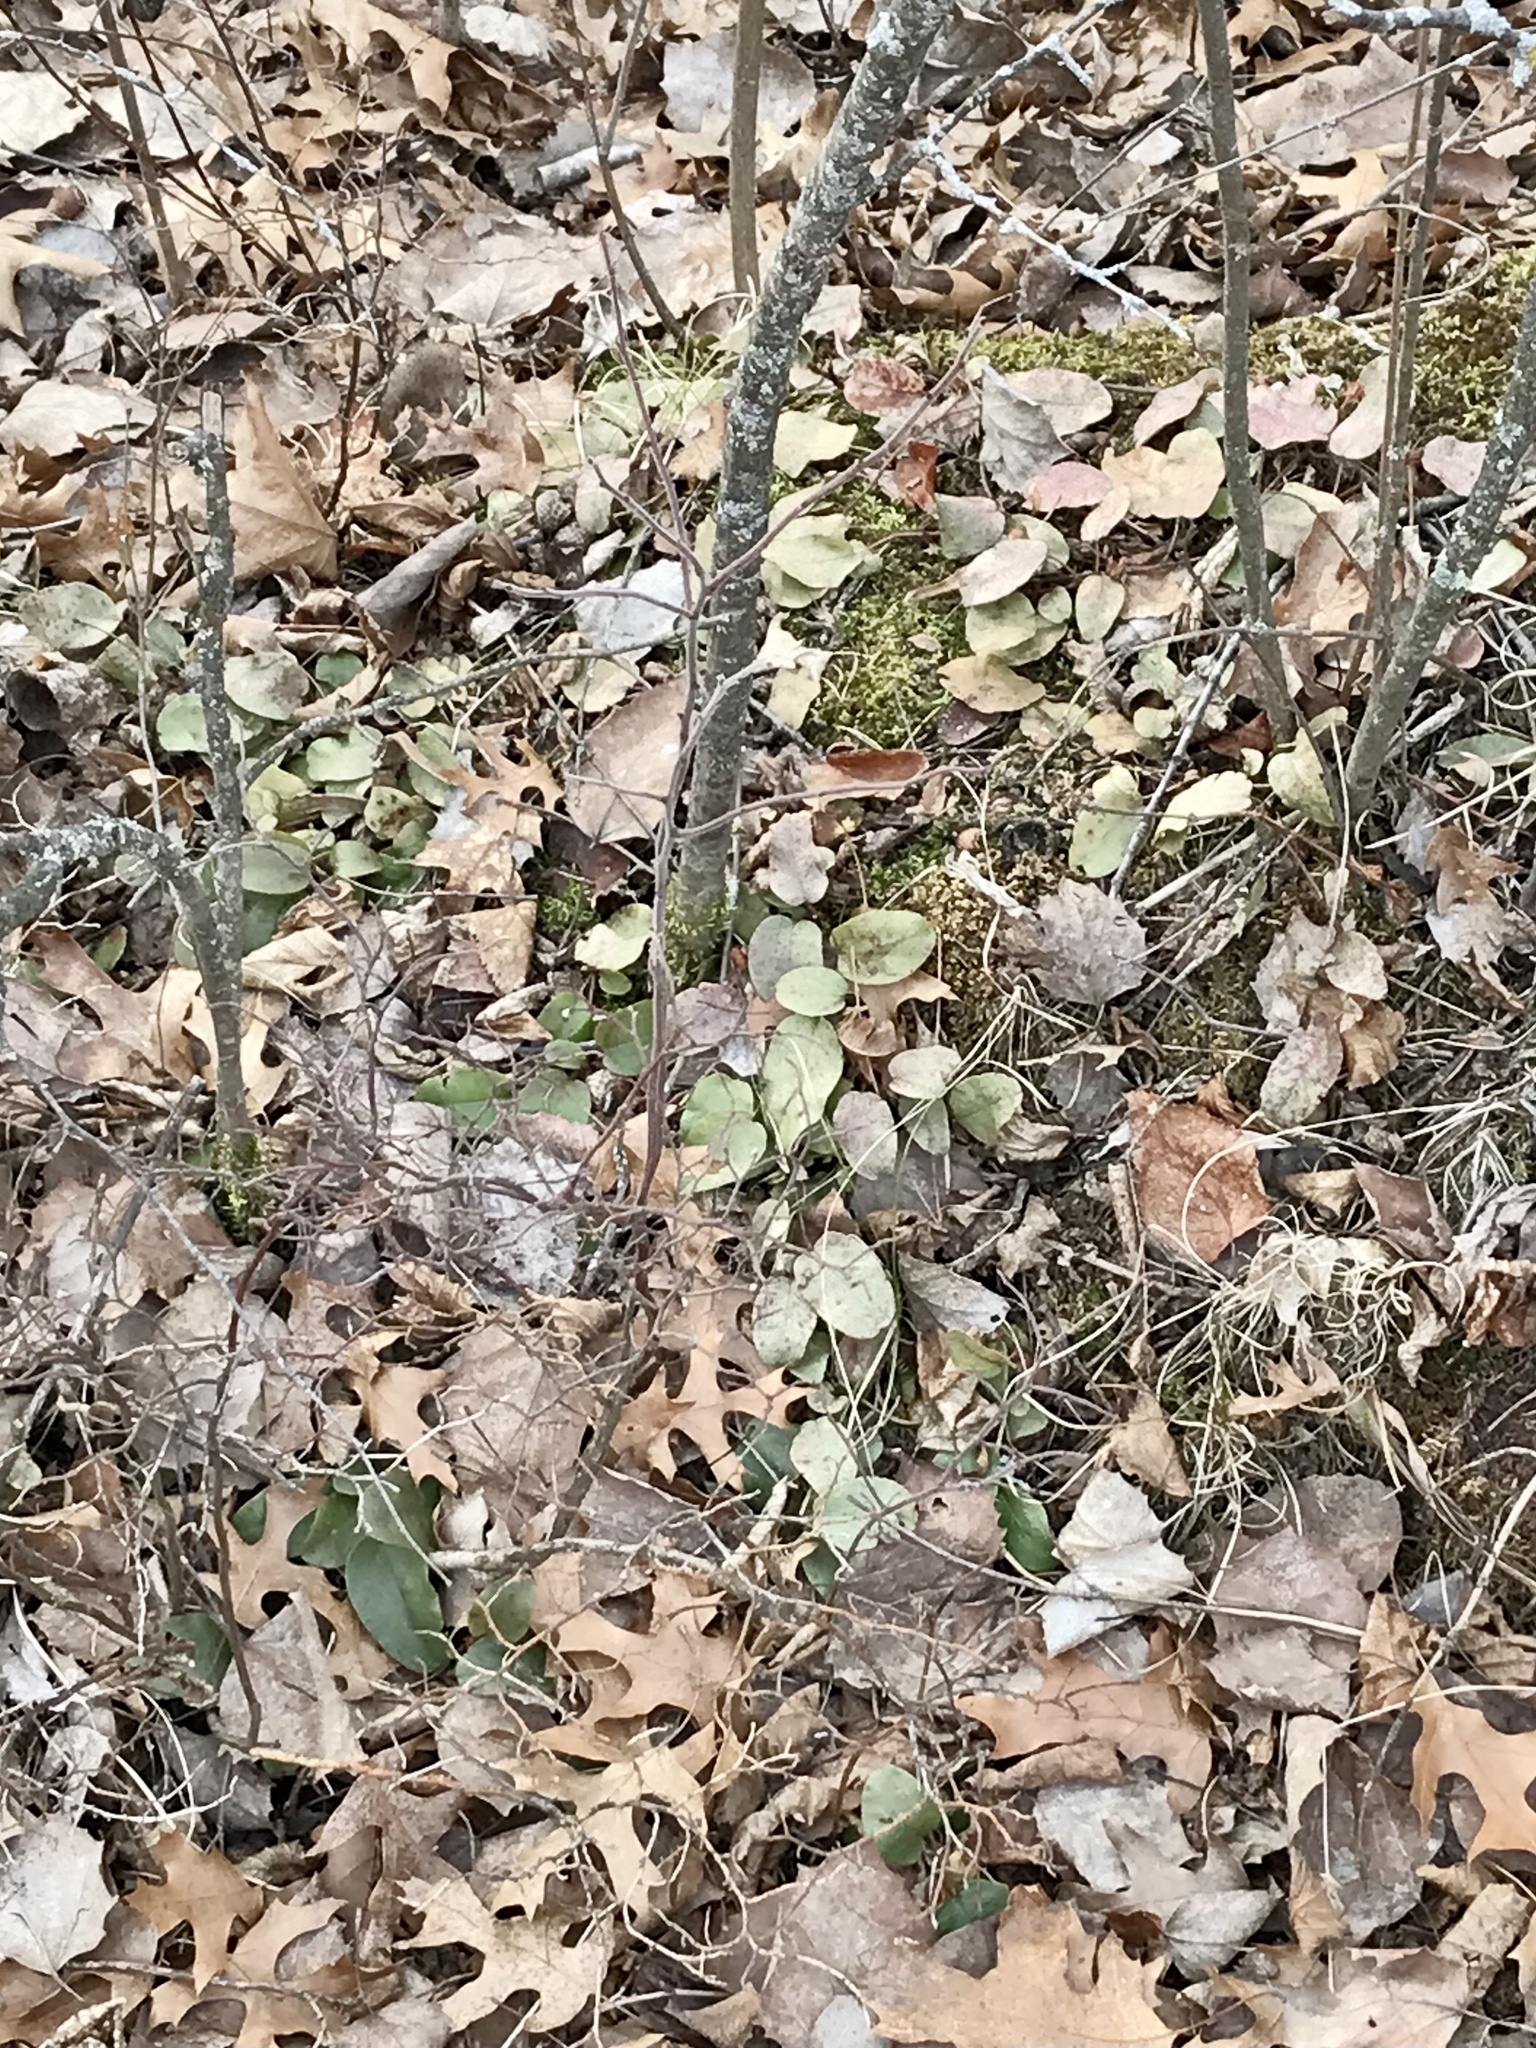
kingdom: Plantae
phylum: Tracheophyta
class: Magnoliopsida
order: Ericales
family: Ericaceae
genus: Epigaea
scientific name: Epigaea repens
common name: Gravelroot
